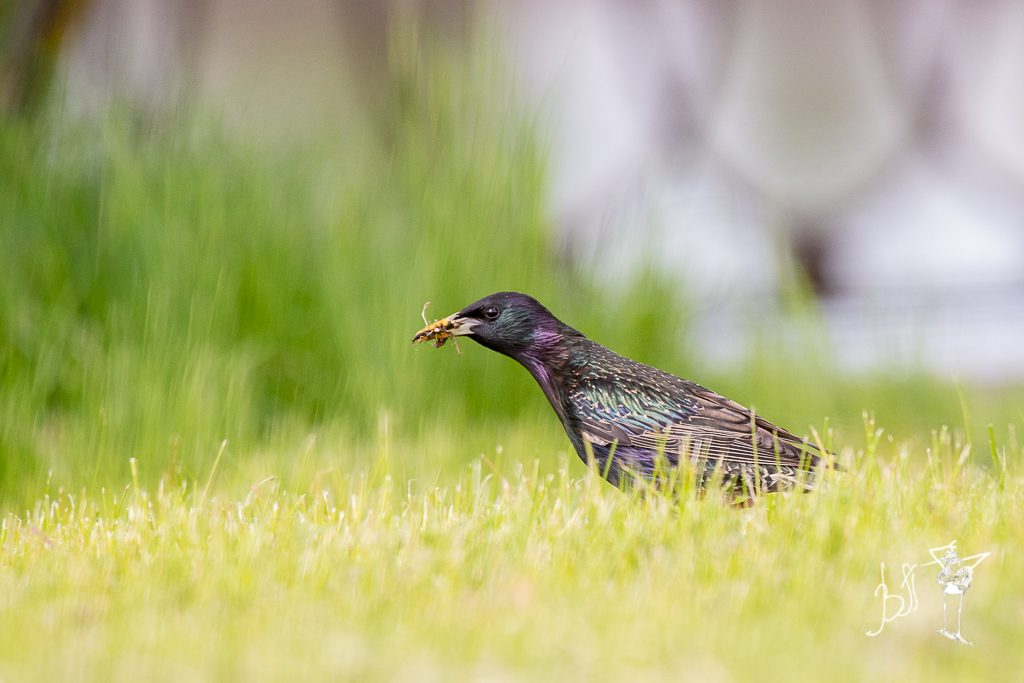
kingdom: Animalia
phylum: Chordata
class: Aves
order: Passeriformes
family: Sturnidae
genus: Sturnus
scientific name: Sturnus vulgaris
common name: Common starling
